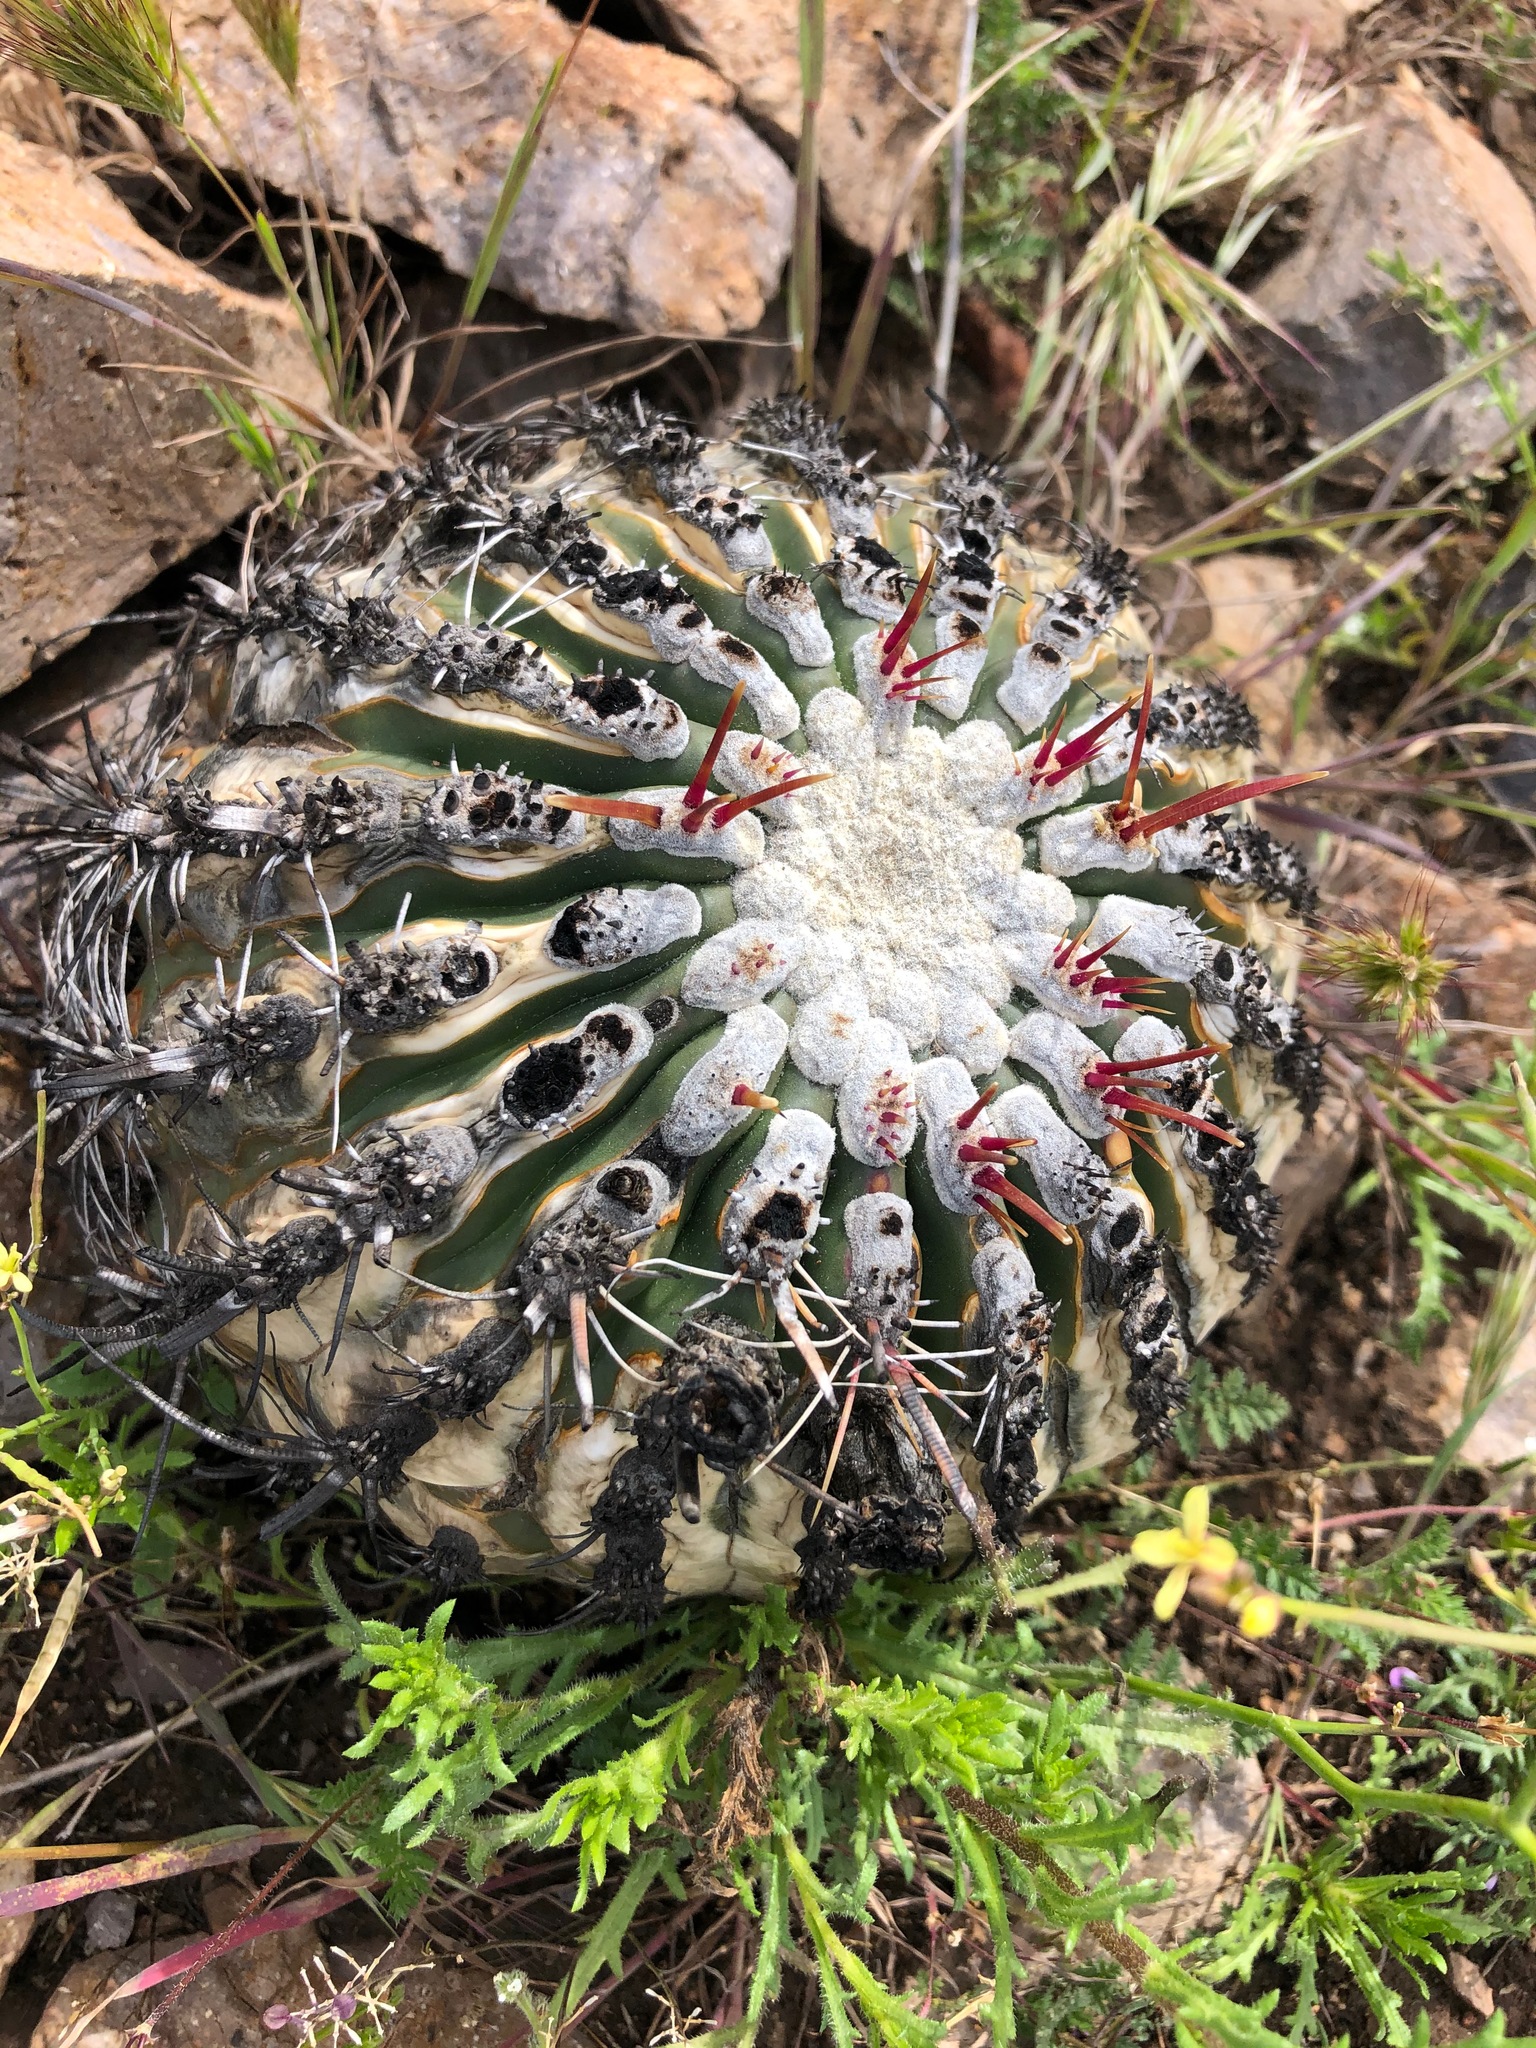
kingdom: Plantae
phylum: Tracheophyta
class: Magnoliopsida
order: Caryophyllales
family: Cactaceae
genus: Ferocactus
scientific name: Ferocactus viridescens
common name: San diego barrel cactus
